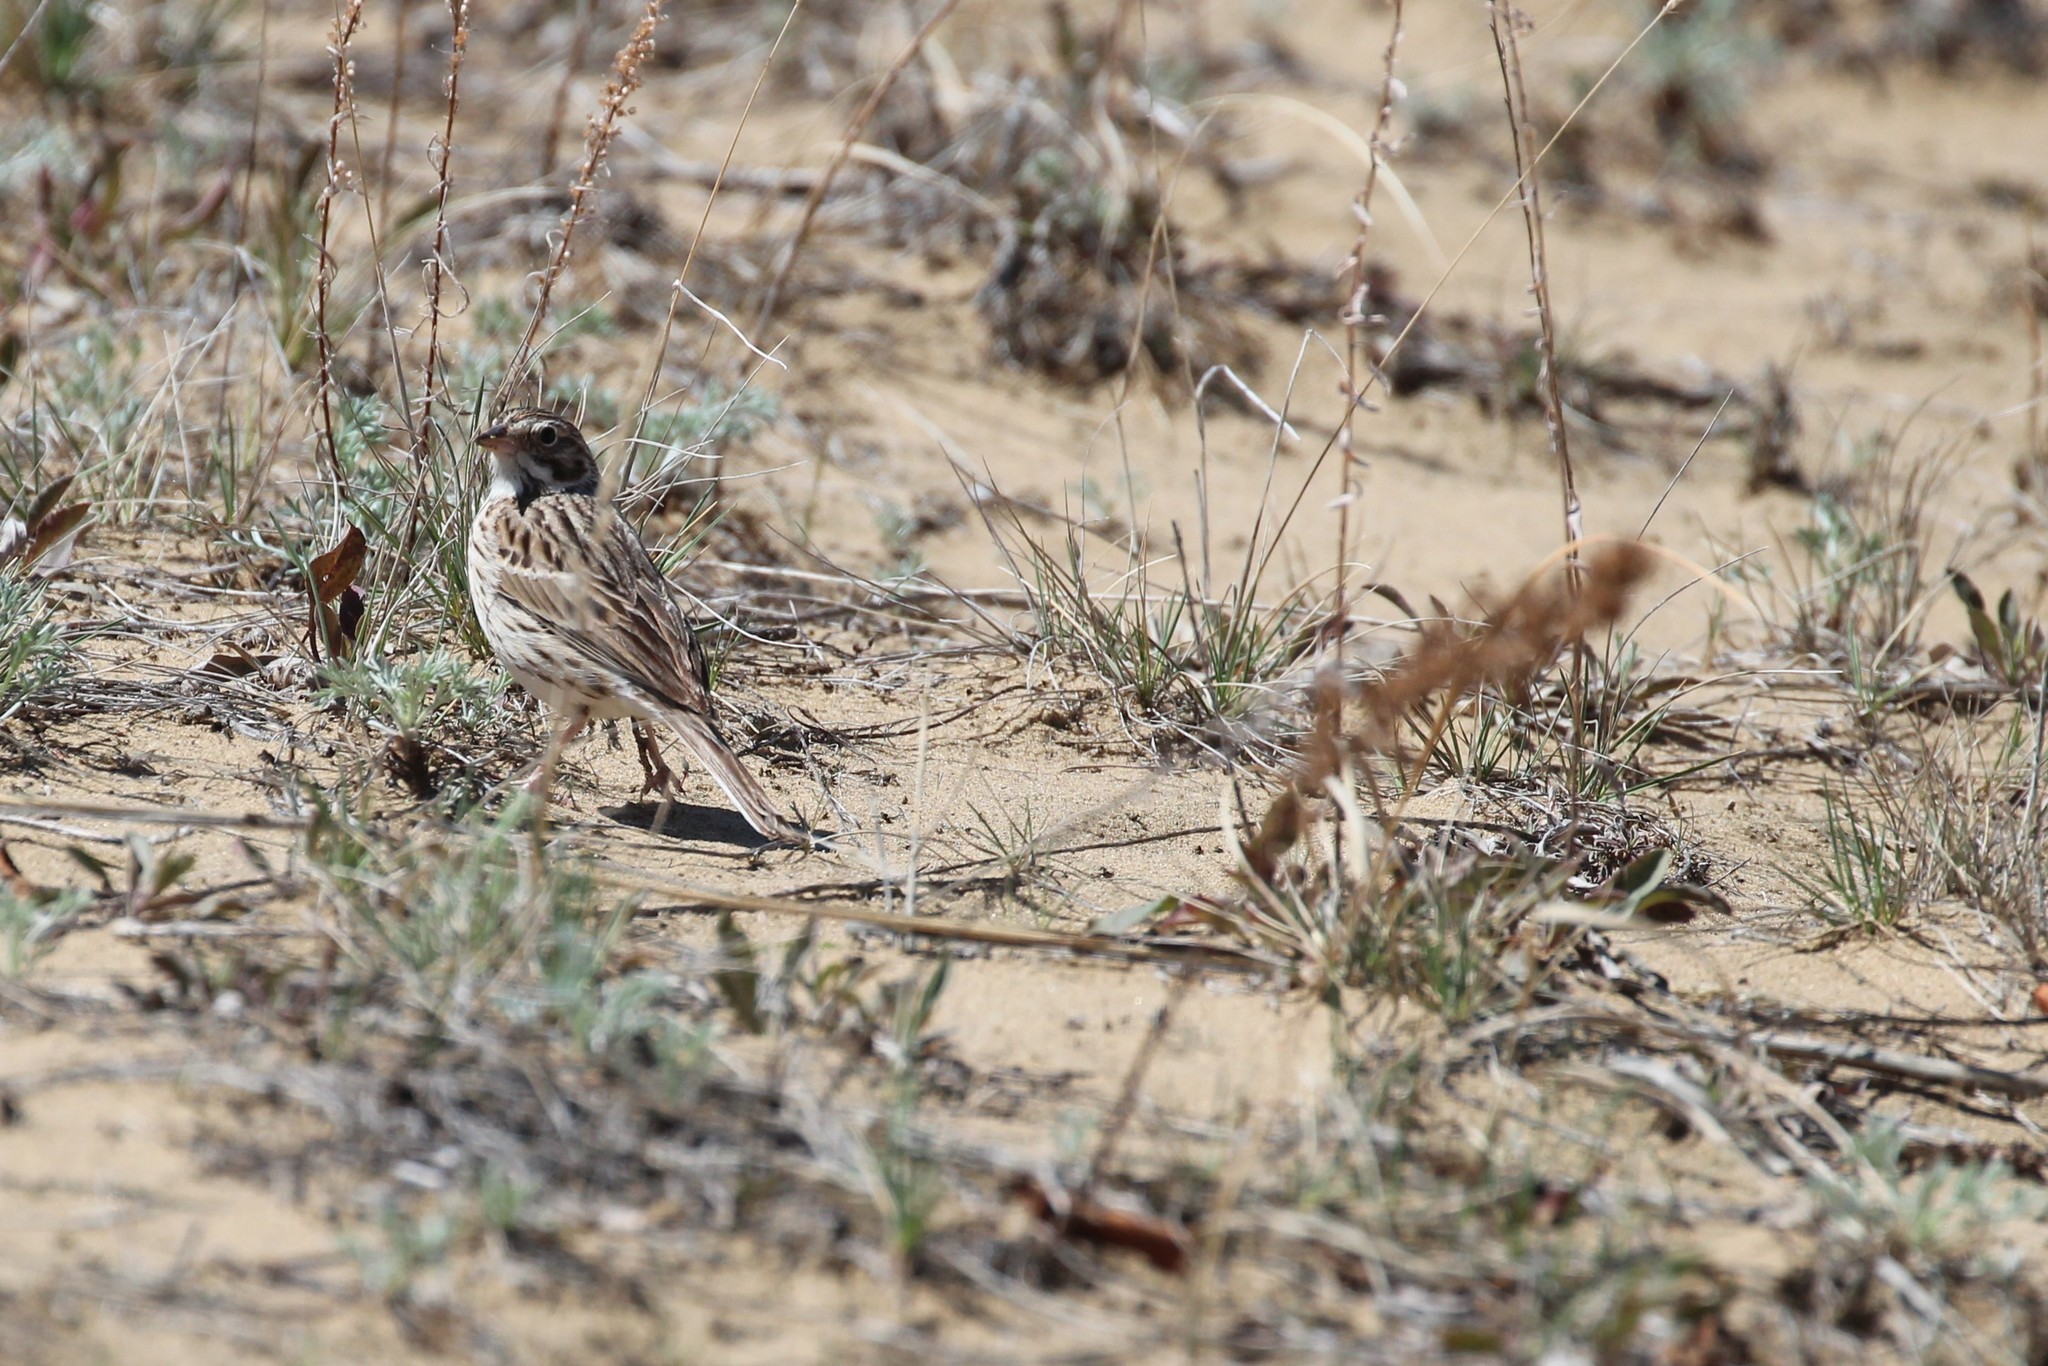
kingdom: Animalia
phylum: Chordata
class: Aves
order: Passeriformes
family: Passerellidae
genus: Pooecetes
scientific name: Pooecetes gramineus
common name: Vesper sparrow
